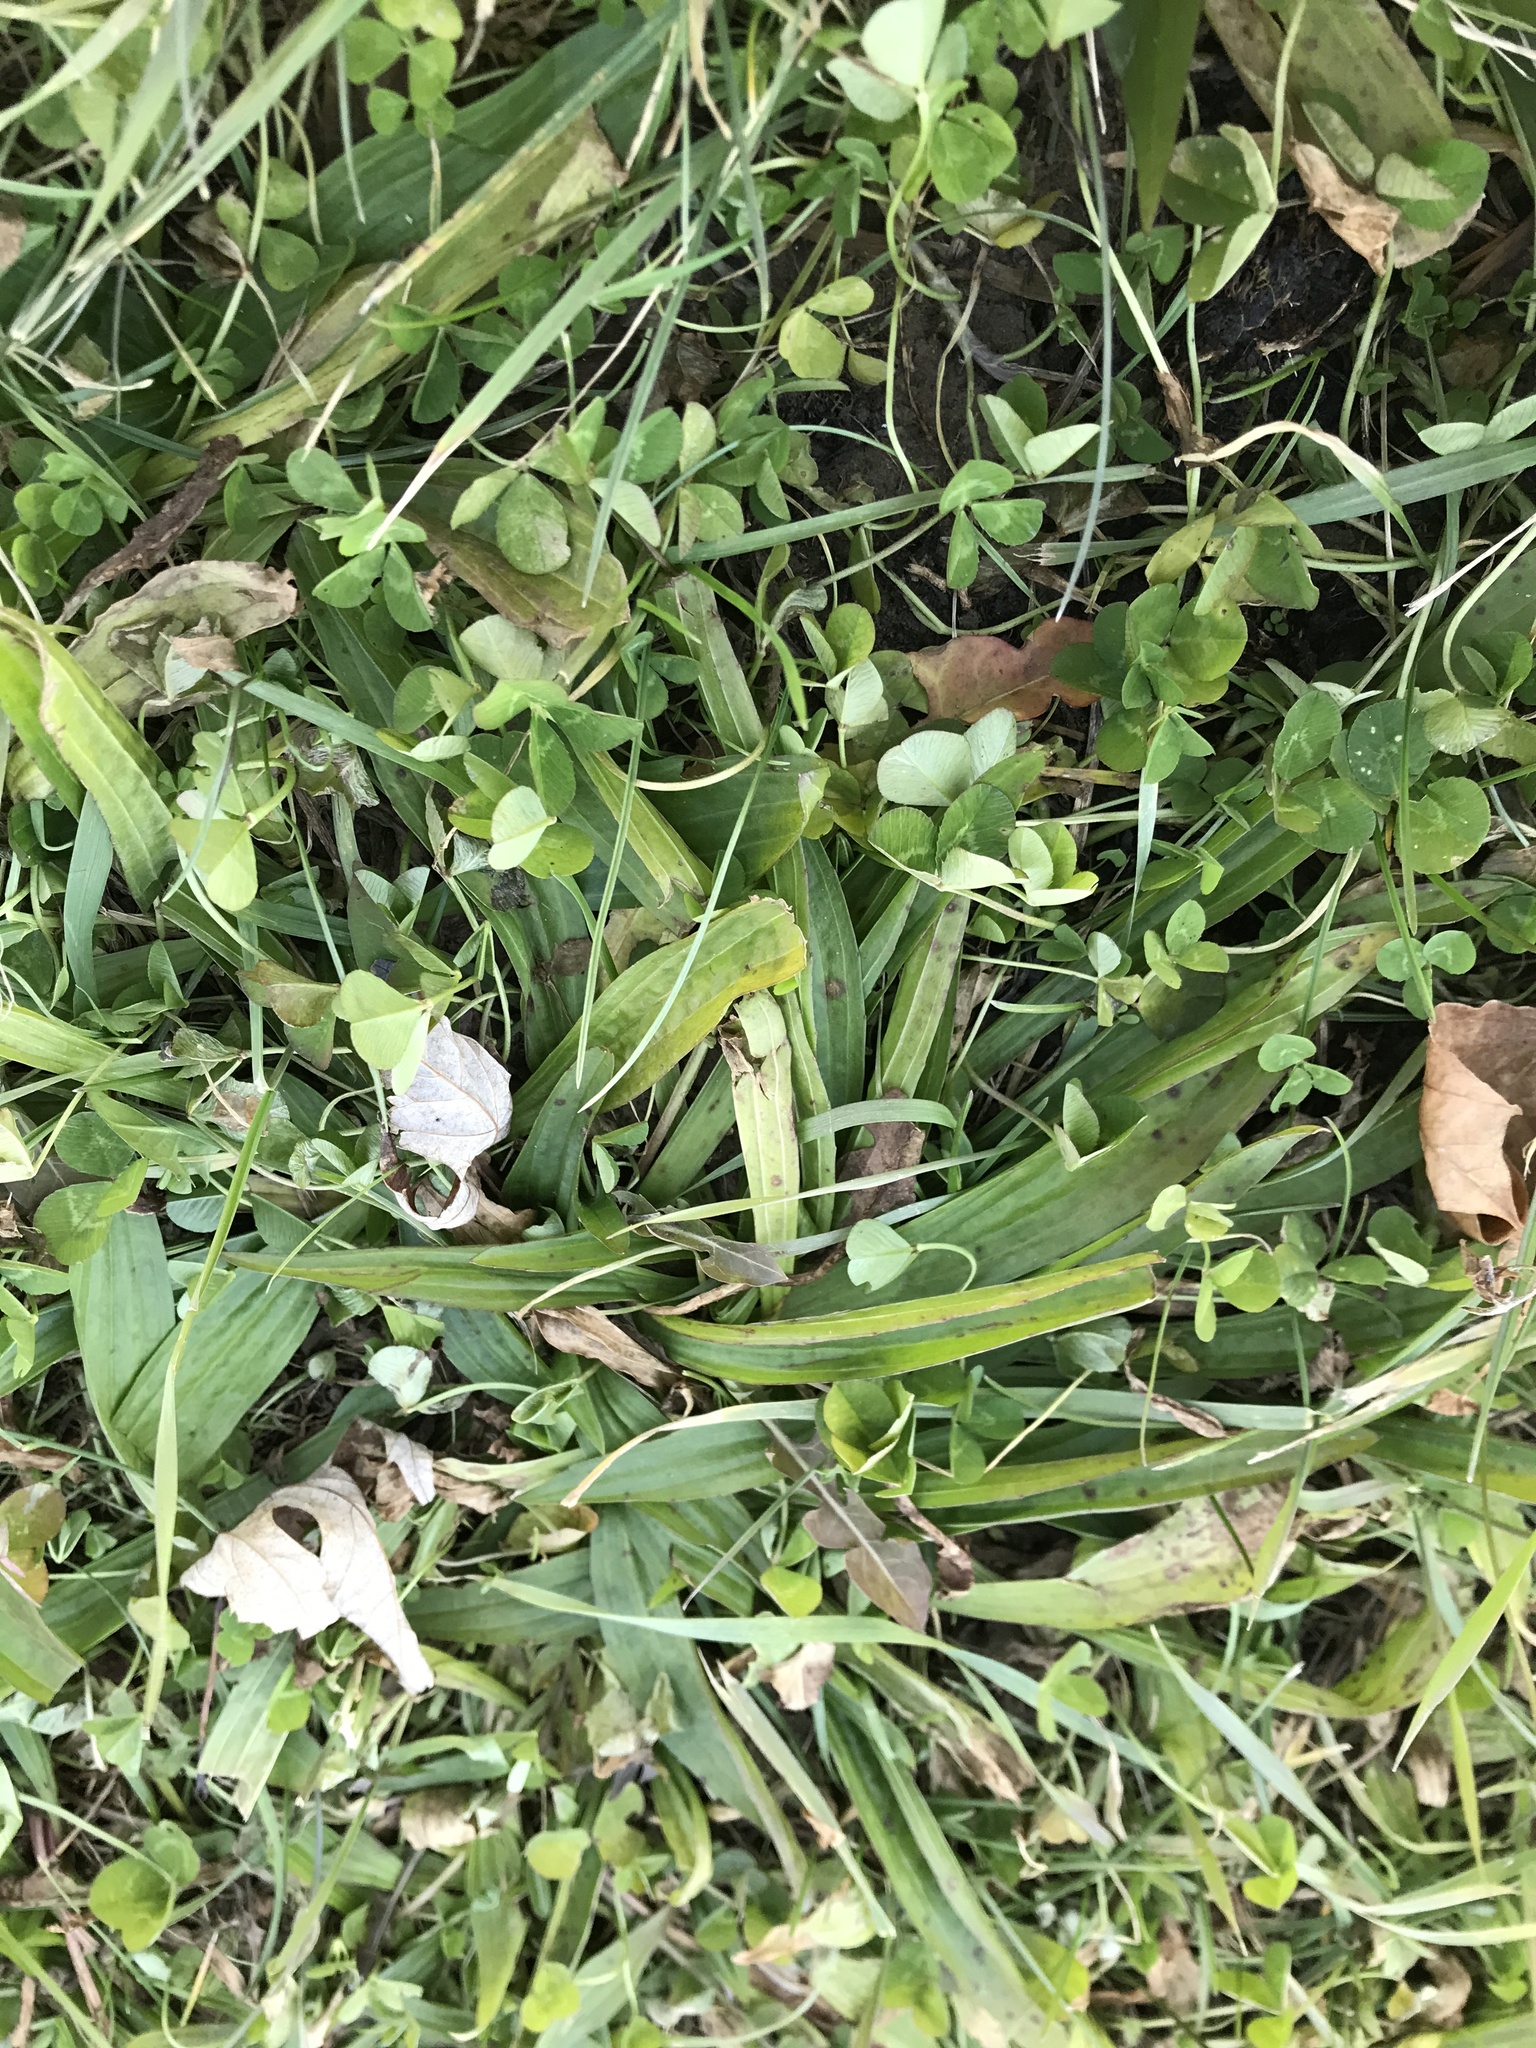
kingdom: Plantae
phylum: Tracheophyta
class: Magnoliopsida
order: Lamiales
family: Plantaginaceae
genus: Plantago
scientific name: Plantago lanceolata
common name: Ribwort plantain
